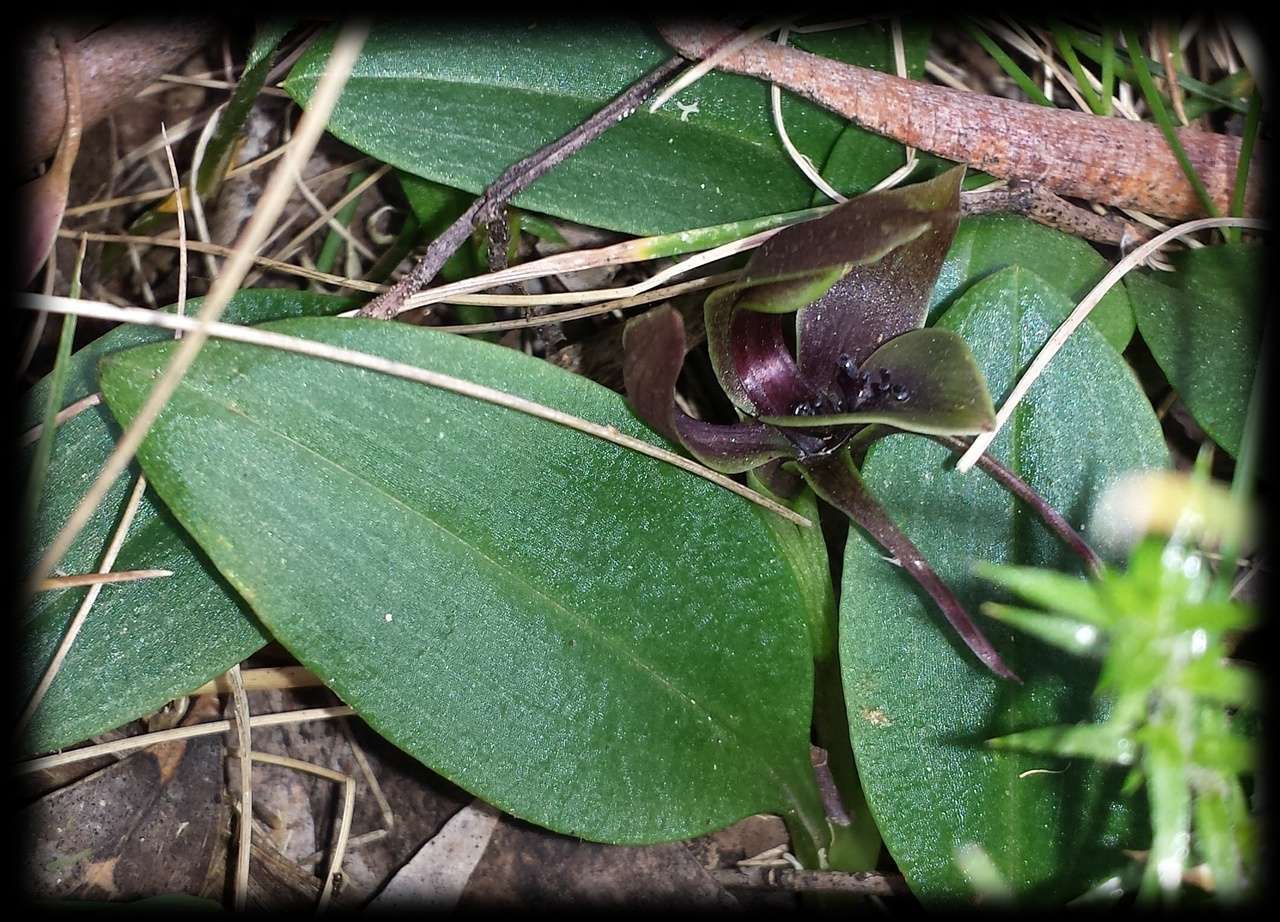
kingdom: Plantae
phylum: Tracheophyta
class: Liliopsida
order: Asparagales
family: Orchidaceae
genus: Chiloglottis
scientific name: Chiloglottis valida
